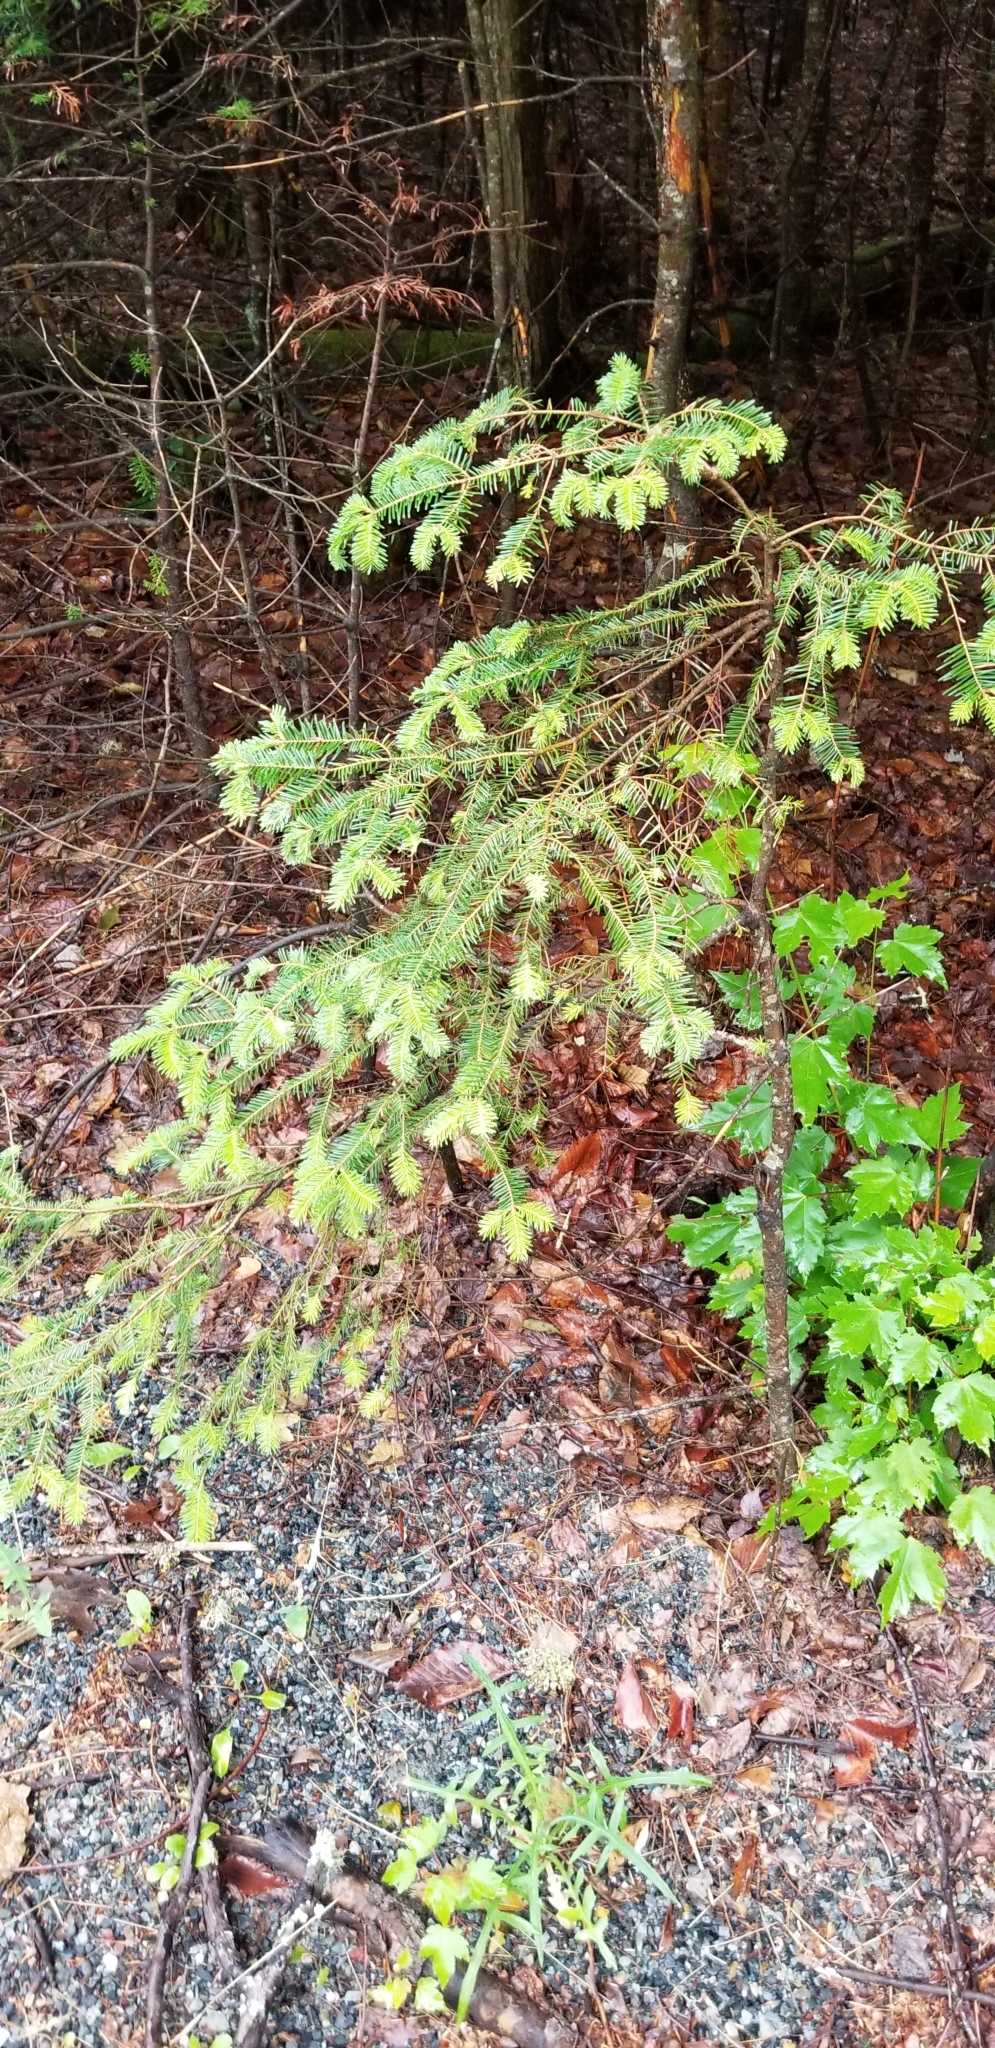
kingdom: Plantae
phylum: Tracheophyta
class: Pinopsida
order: Pinales
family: Pinaceae
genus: Abies
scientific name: Abies balsamea
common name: Balsam fir
